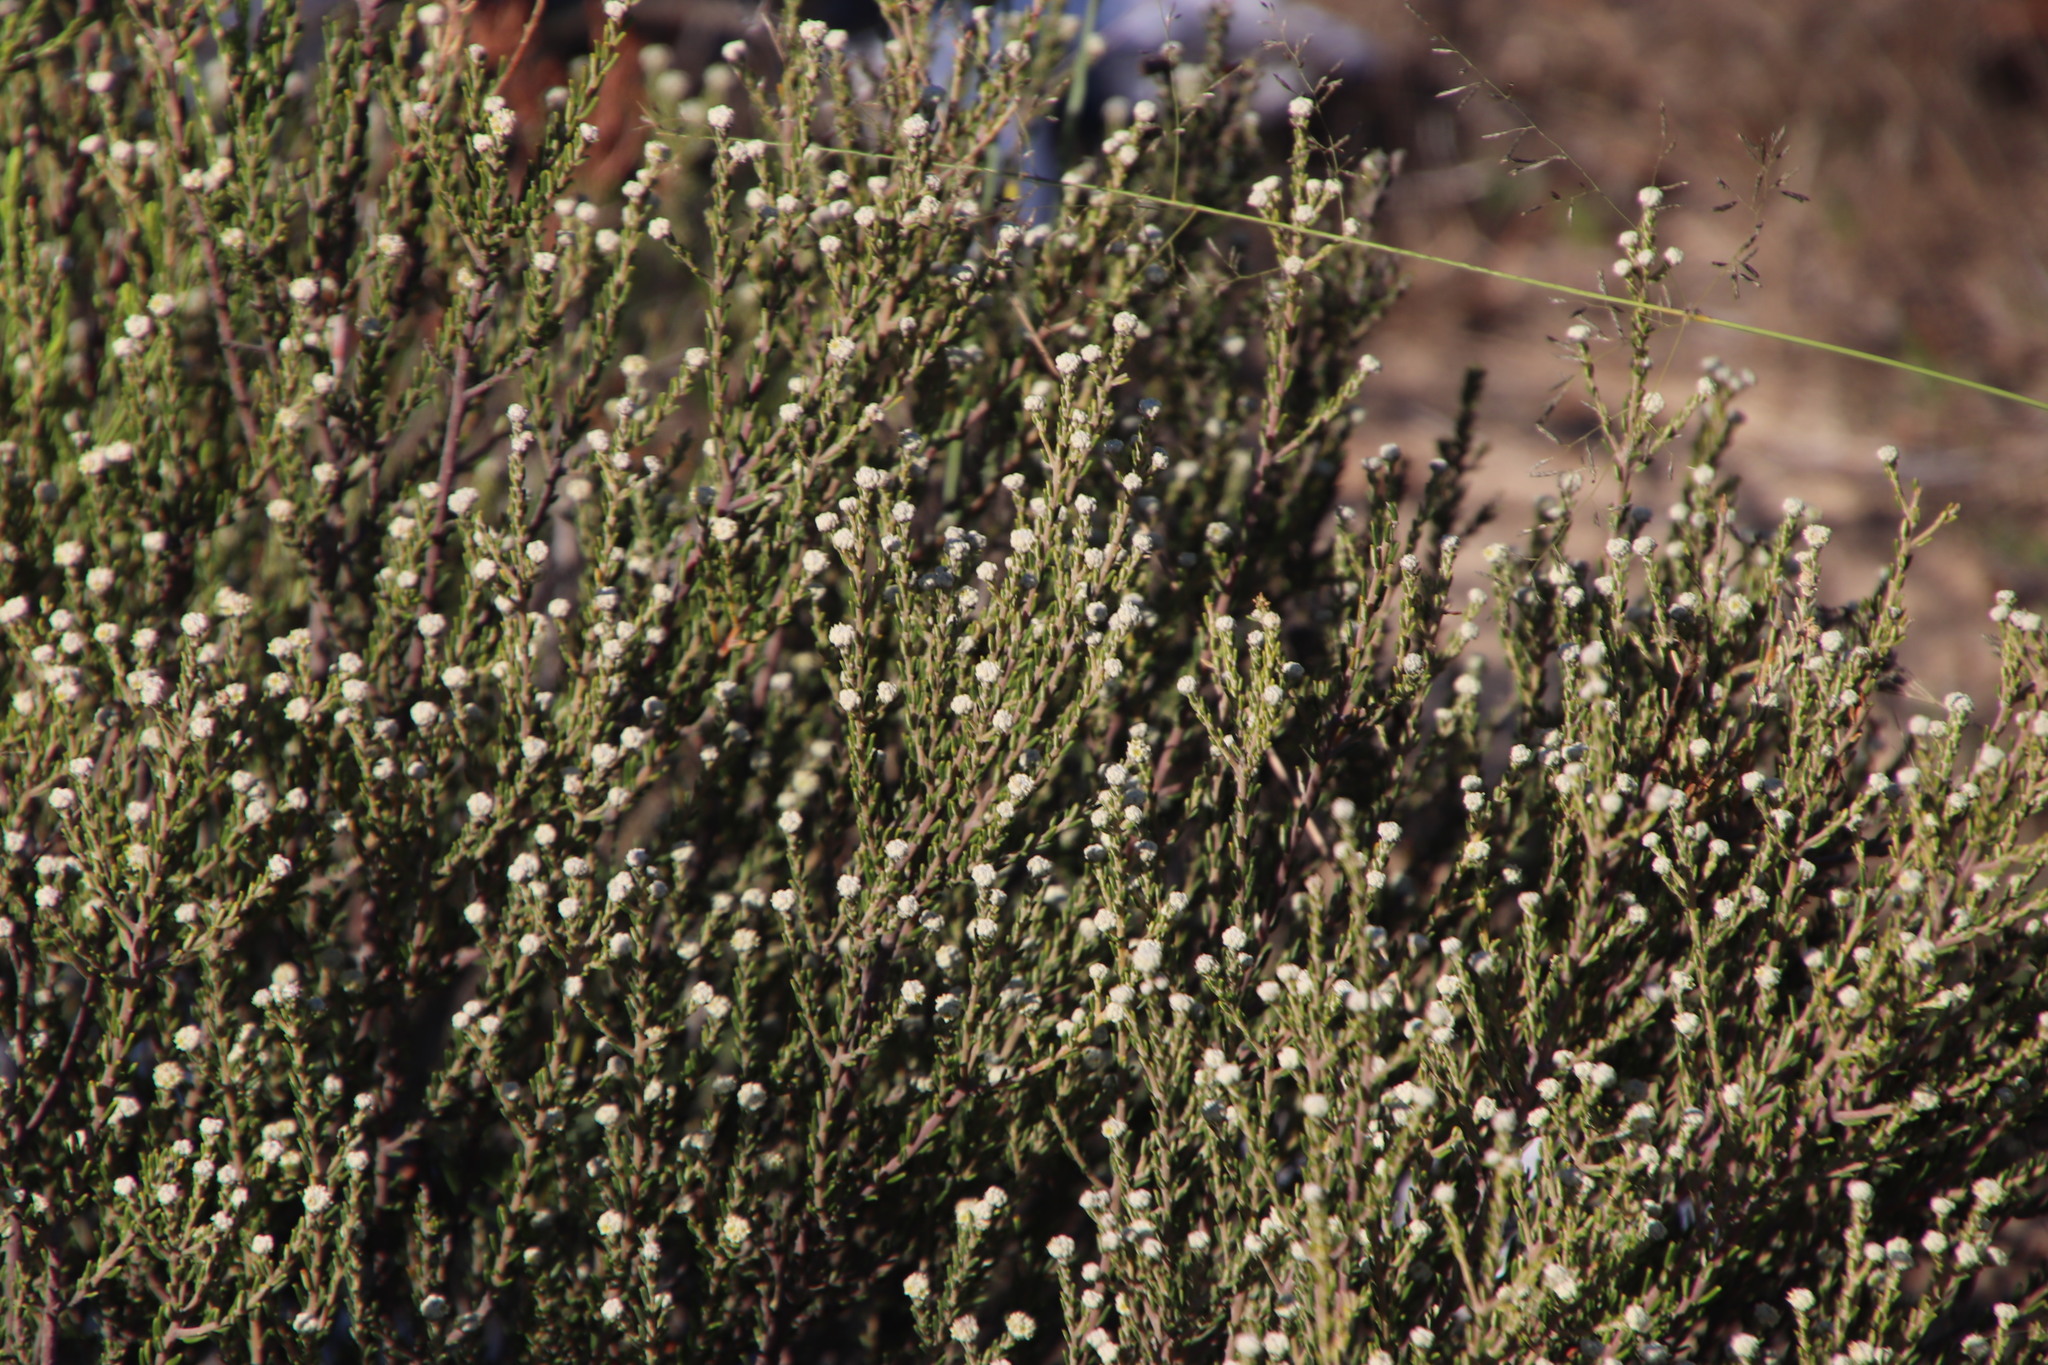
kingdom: Plantae
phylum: Tracheophyta
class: Magnoliopsida
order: Rosales
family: Rhamnaceae
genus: Phylica
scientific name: Phylica cephalantha
